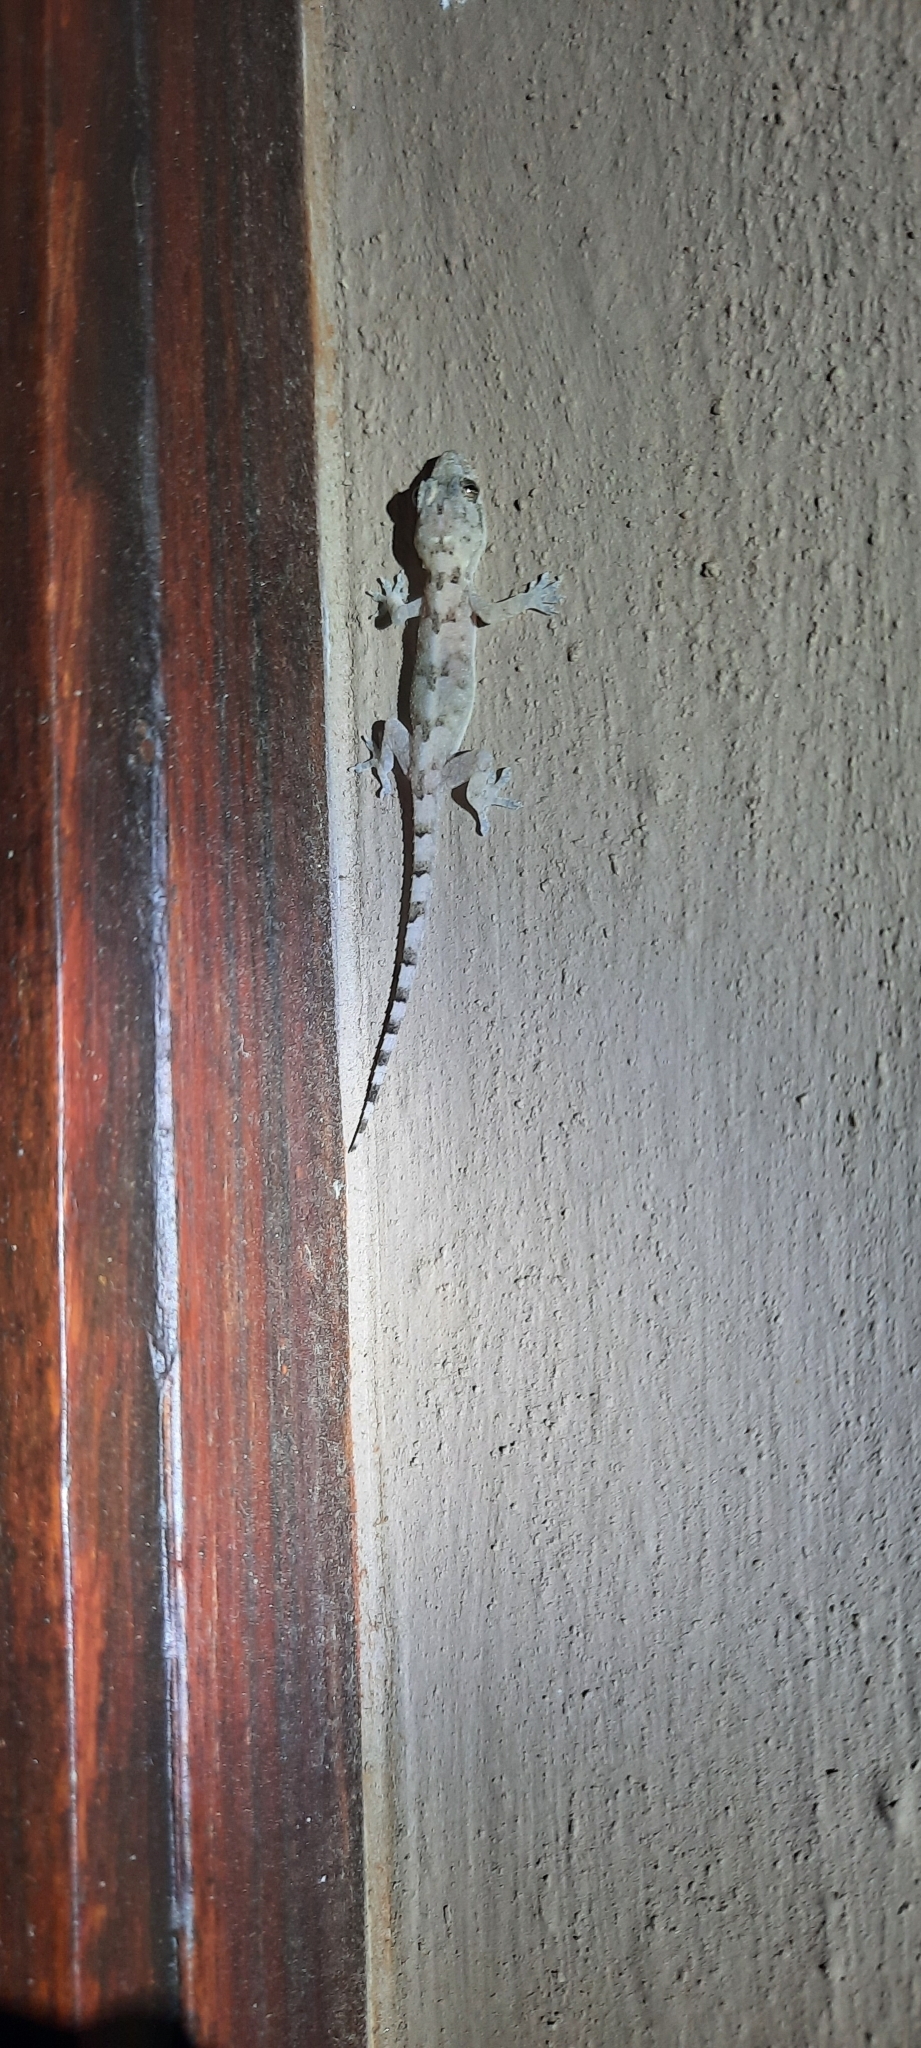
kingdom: Animalia
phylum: Chordata
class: Squamata
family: Gekkonidae
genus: Hemidactylus
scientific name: Hemidactylus mabouia
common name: House gecko
